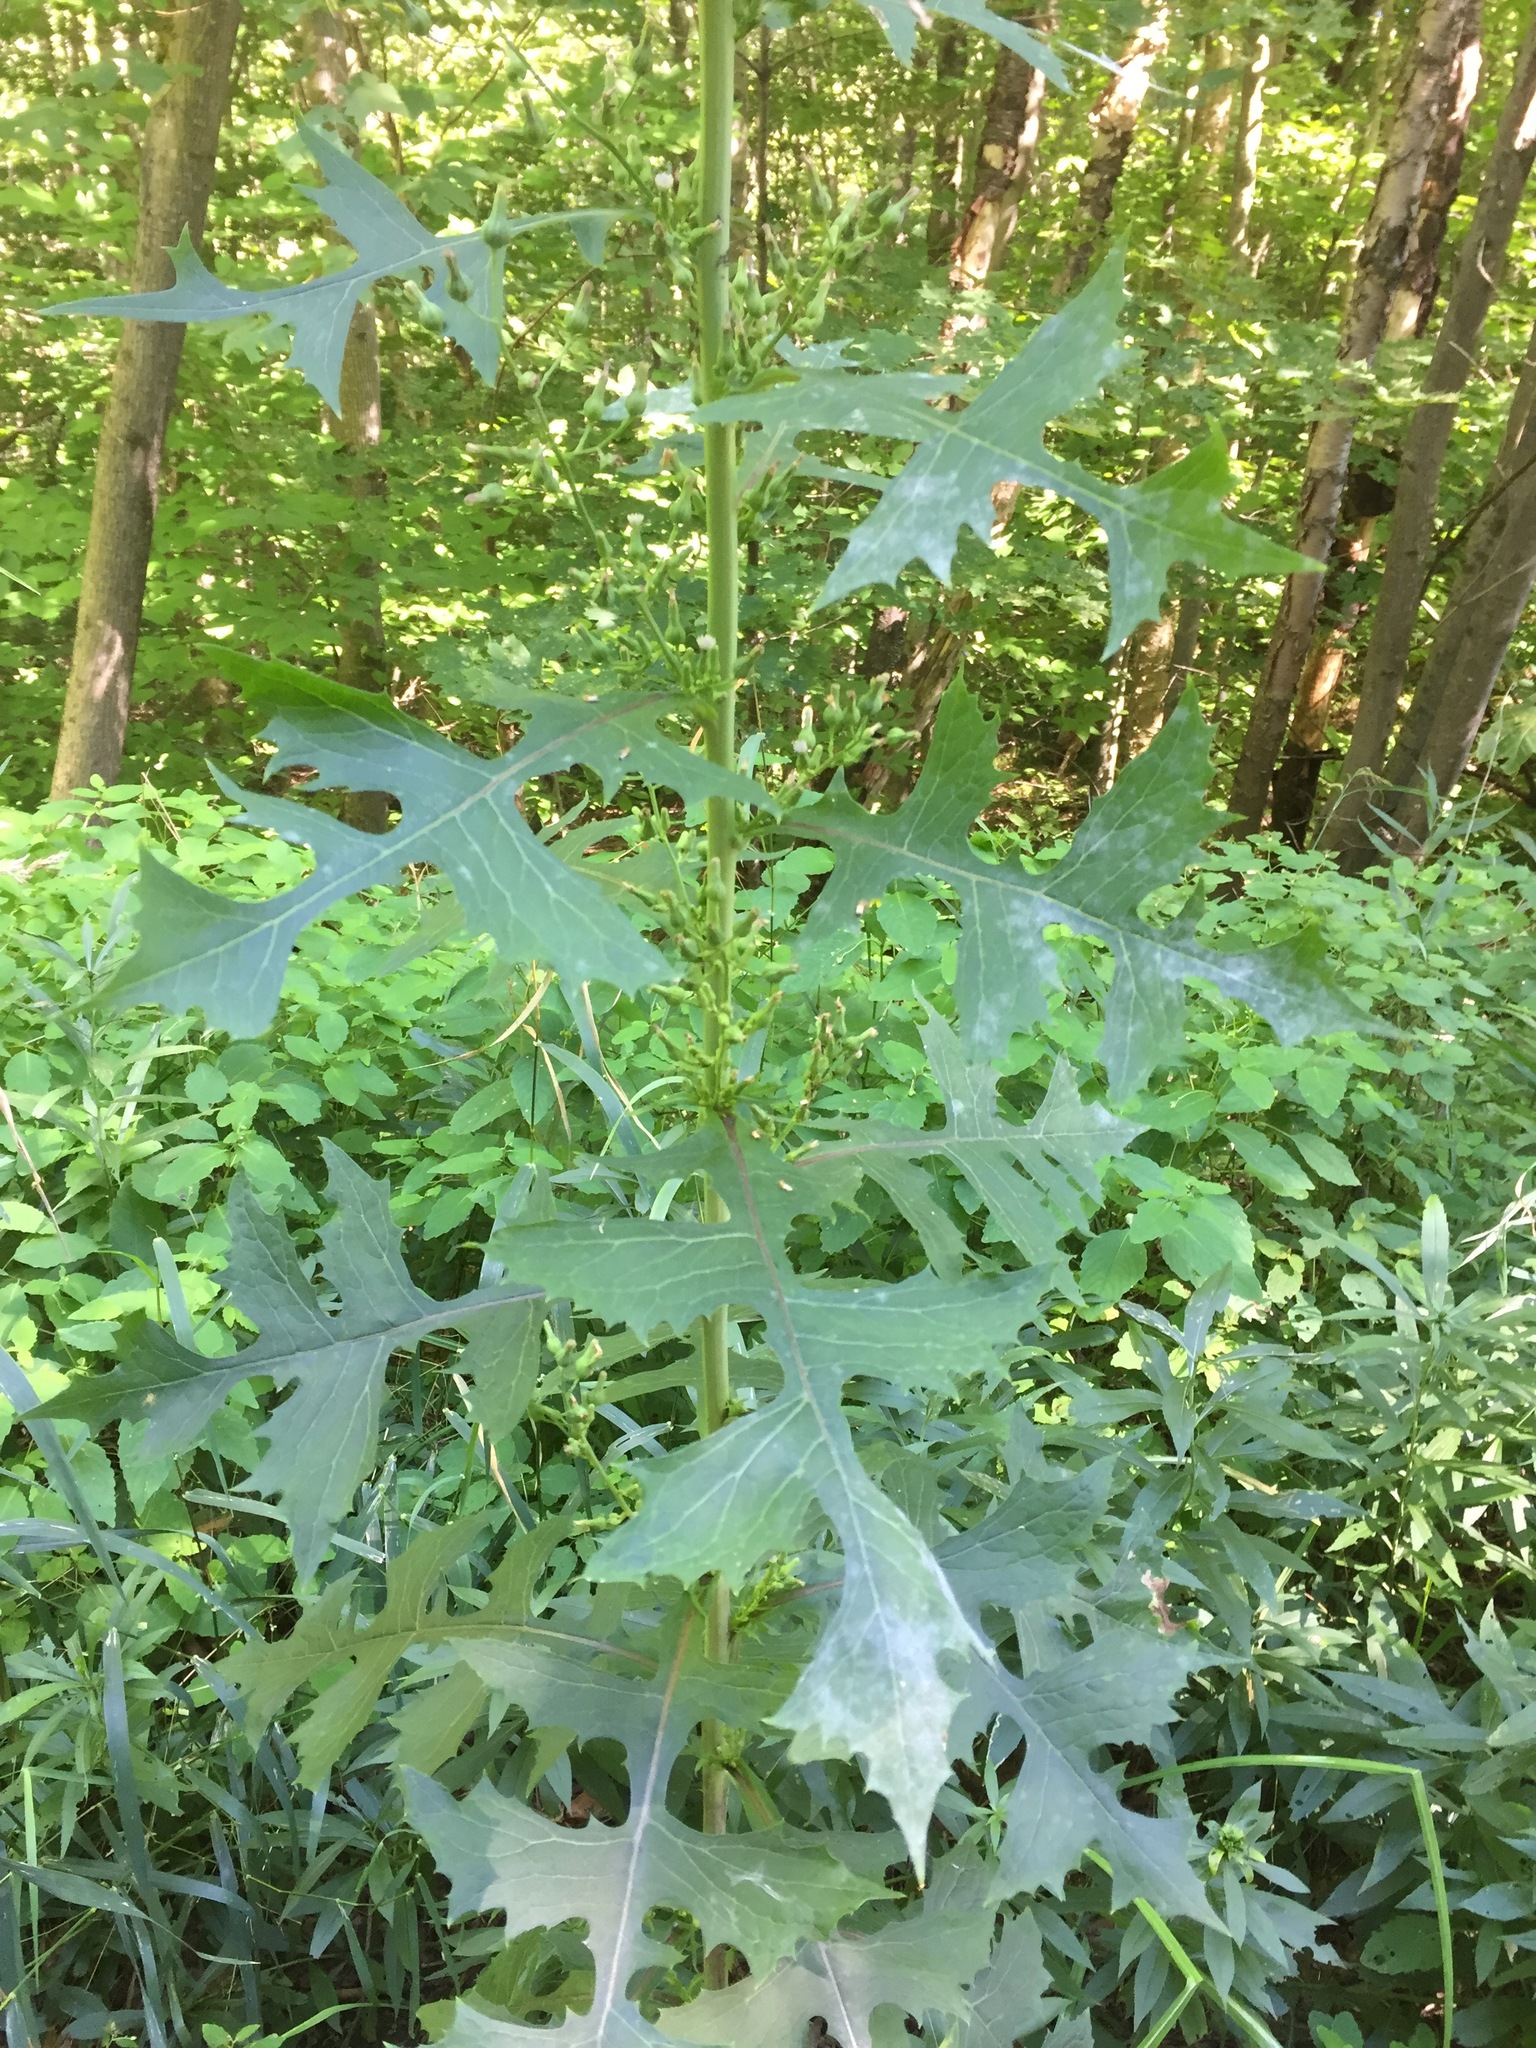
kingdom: Plantae
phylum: Tracheophyta
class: Magnoliopsida
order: Asterales
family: Asteraceae
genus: Lactuca
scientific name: Lactuca biennis
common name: Blue wood lettuce
